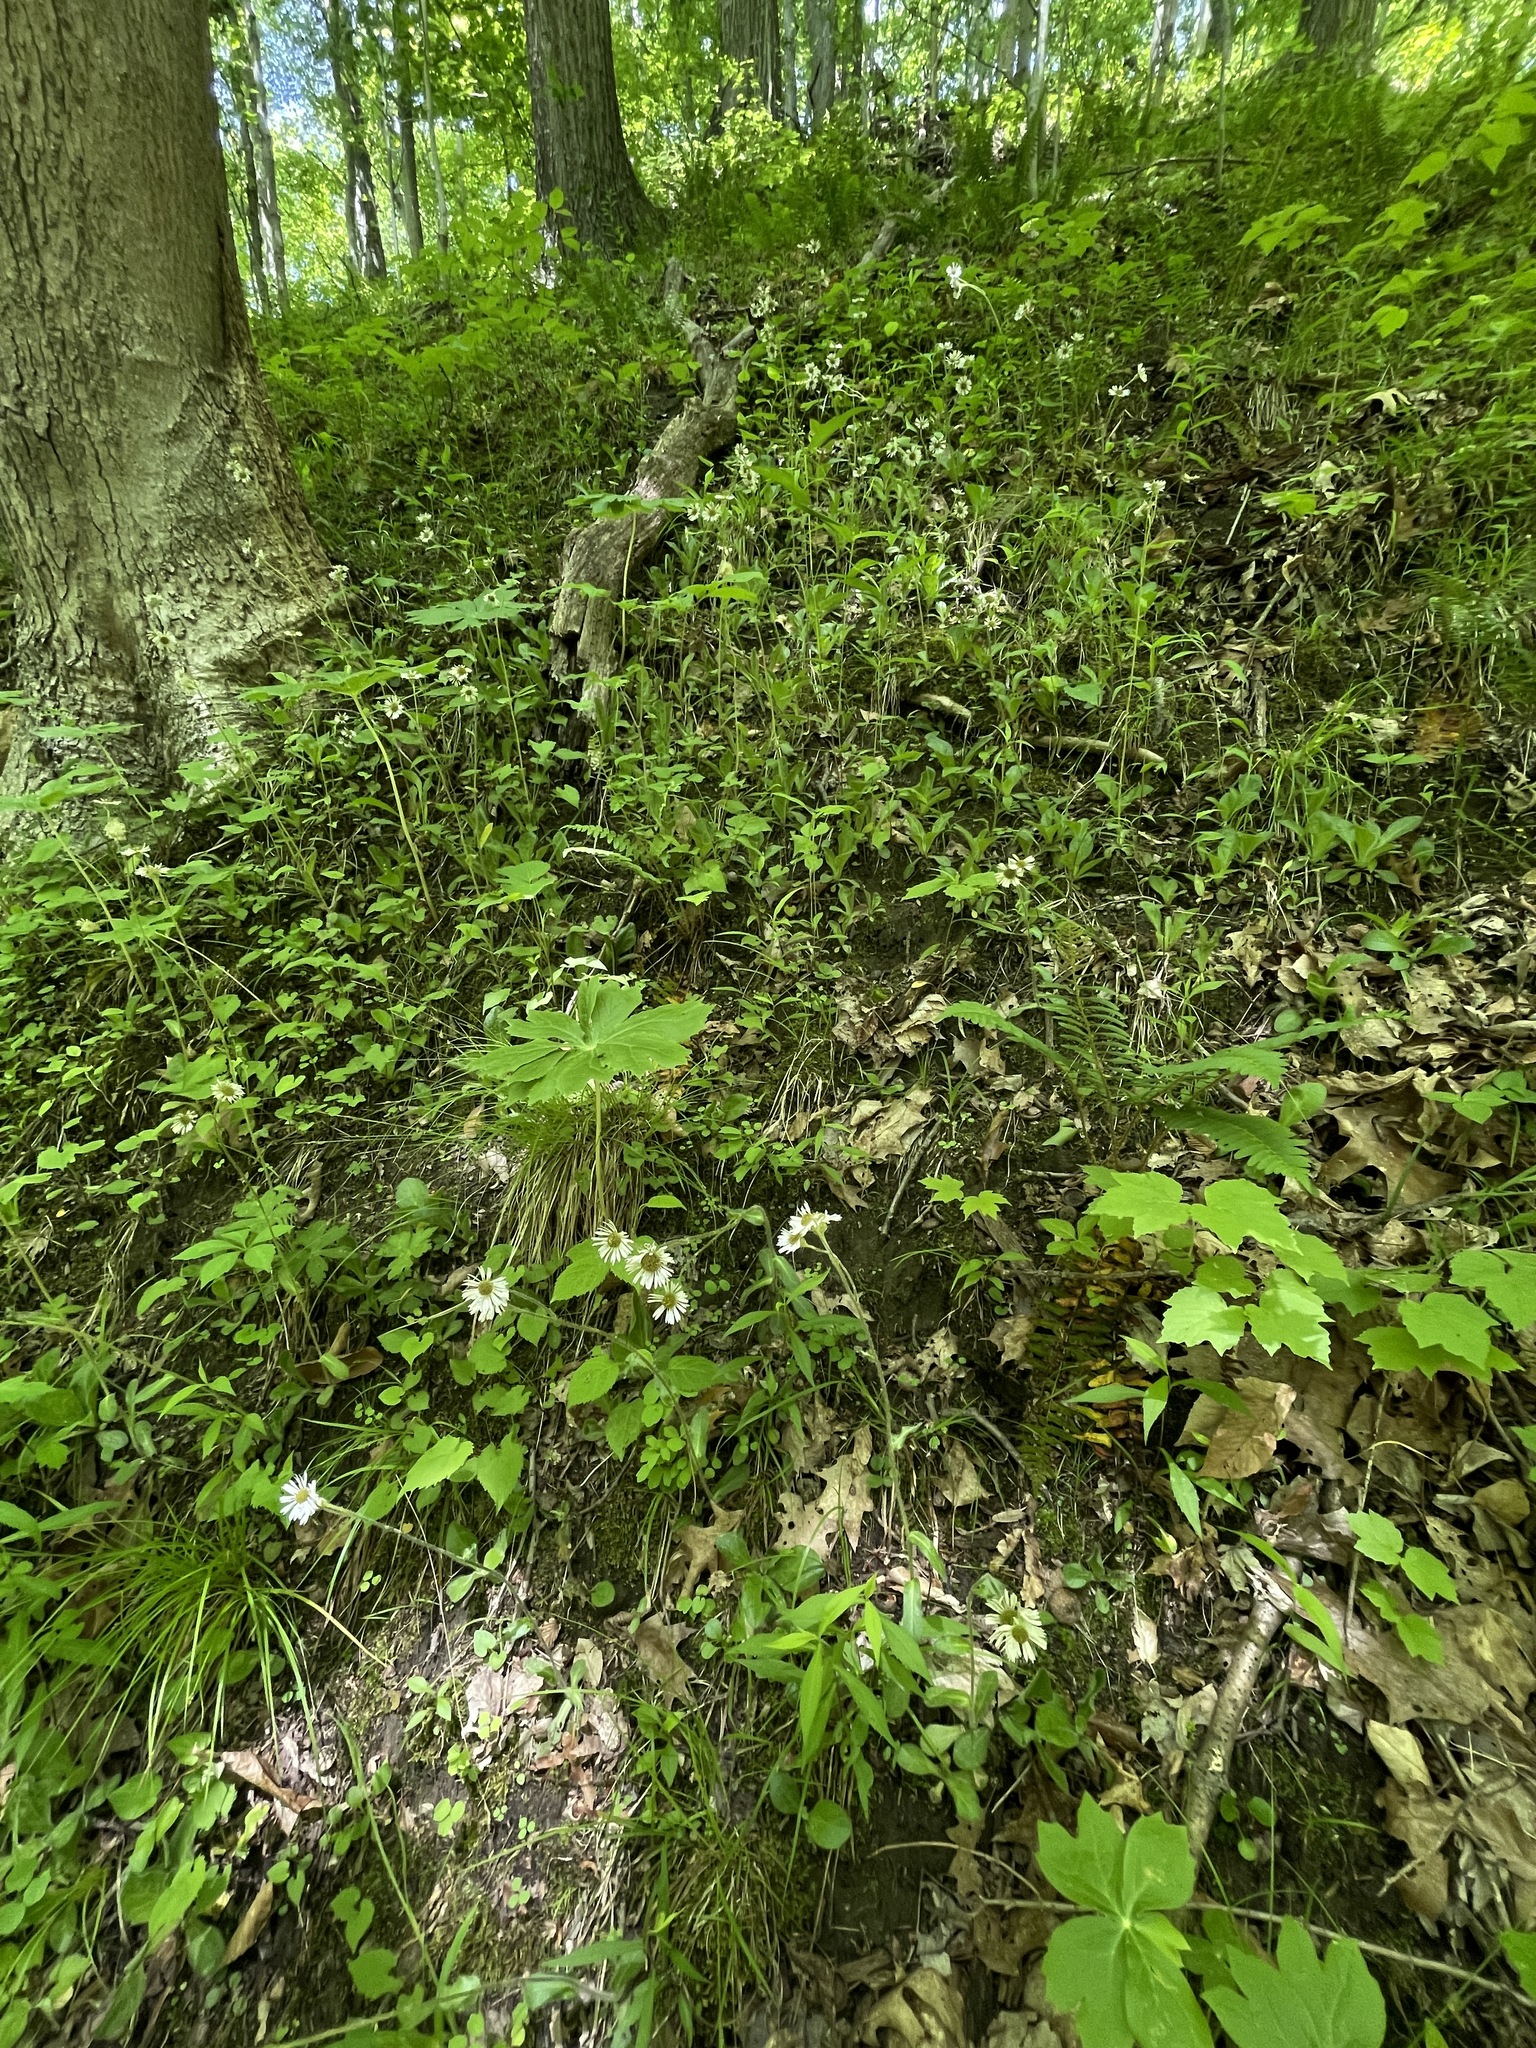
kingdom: Plantae
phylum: Tracheophyta
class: Magnoliopsida
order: Asterales
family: Asteraceae
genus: Erigeron
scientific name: Erigeron pulchellus
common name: Hairy fleabane
